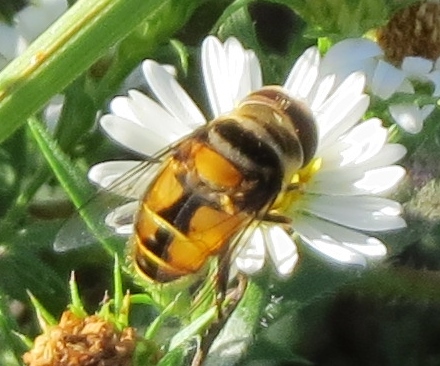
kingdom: Animalia
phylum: Arthropoda
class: Insecta
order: Diptera
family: Syrphidae
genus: Palpada
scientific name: Palpada agrorum
